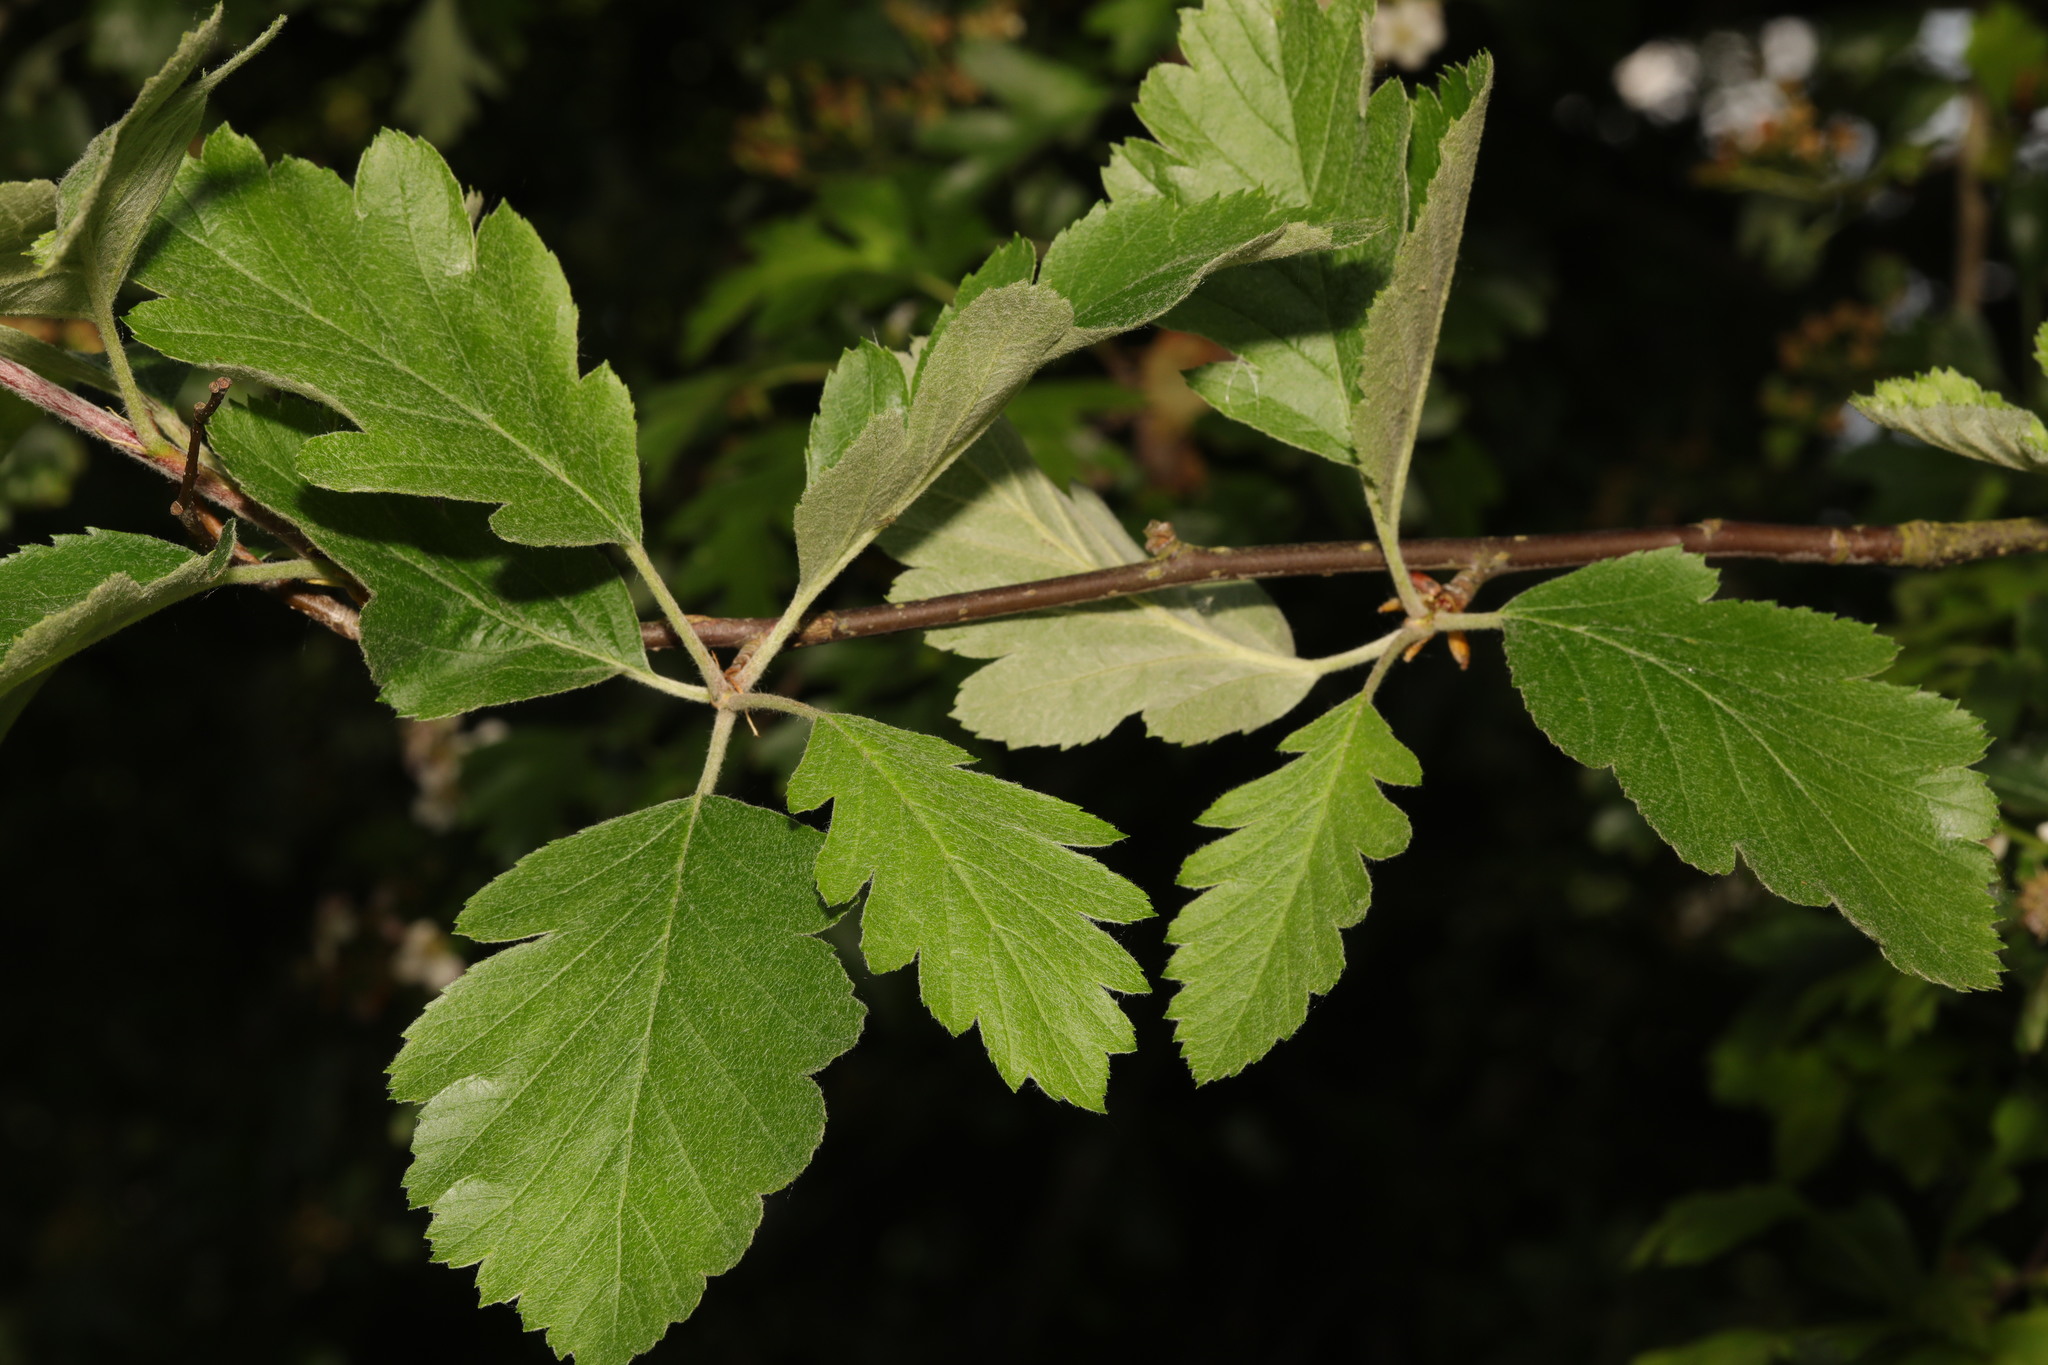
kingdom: Plantae
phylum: Tracheophyta
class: Magnoliopsida
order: Rosales
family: Rosaceae
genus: Scandosorbus
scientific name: Scandosorbus intermedia
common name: Swedish whitebeam
